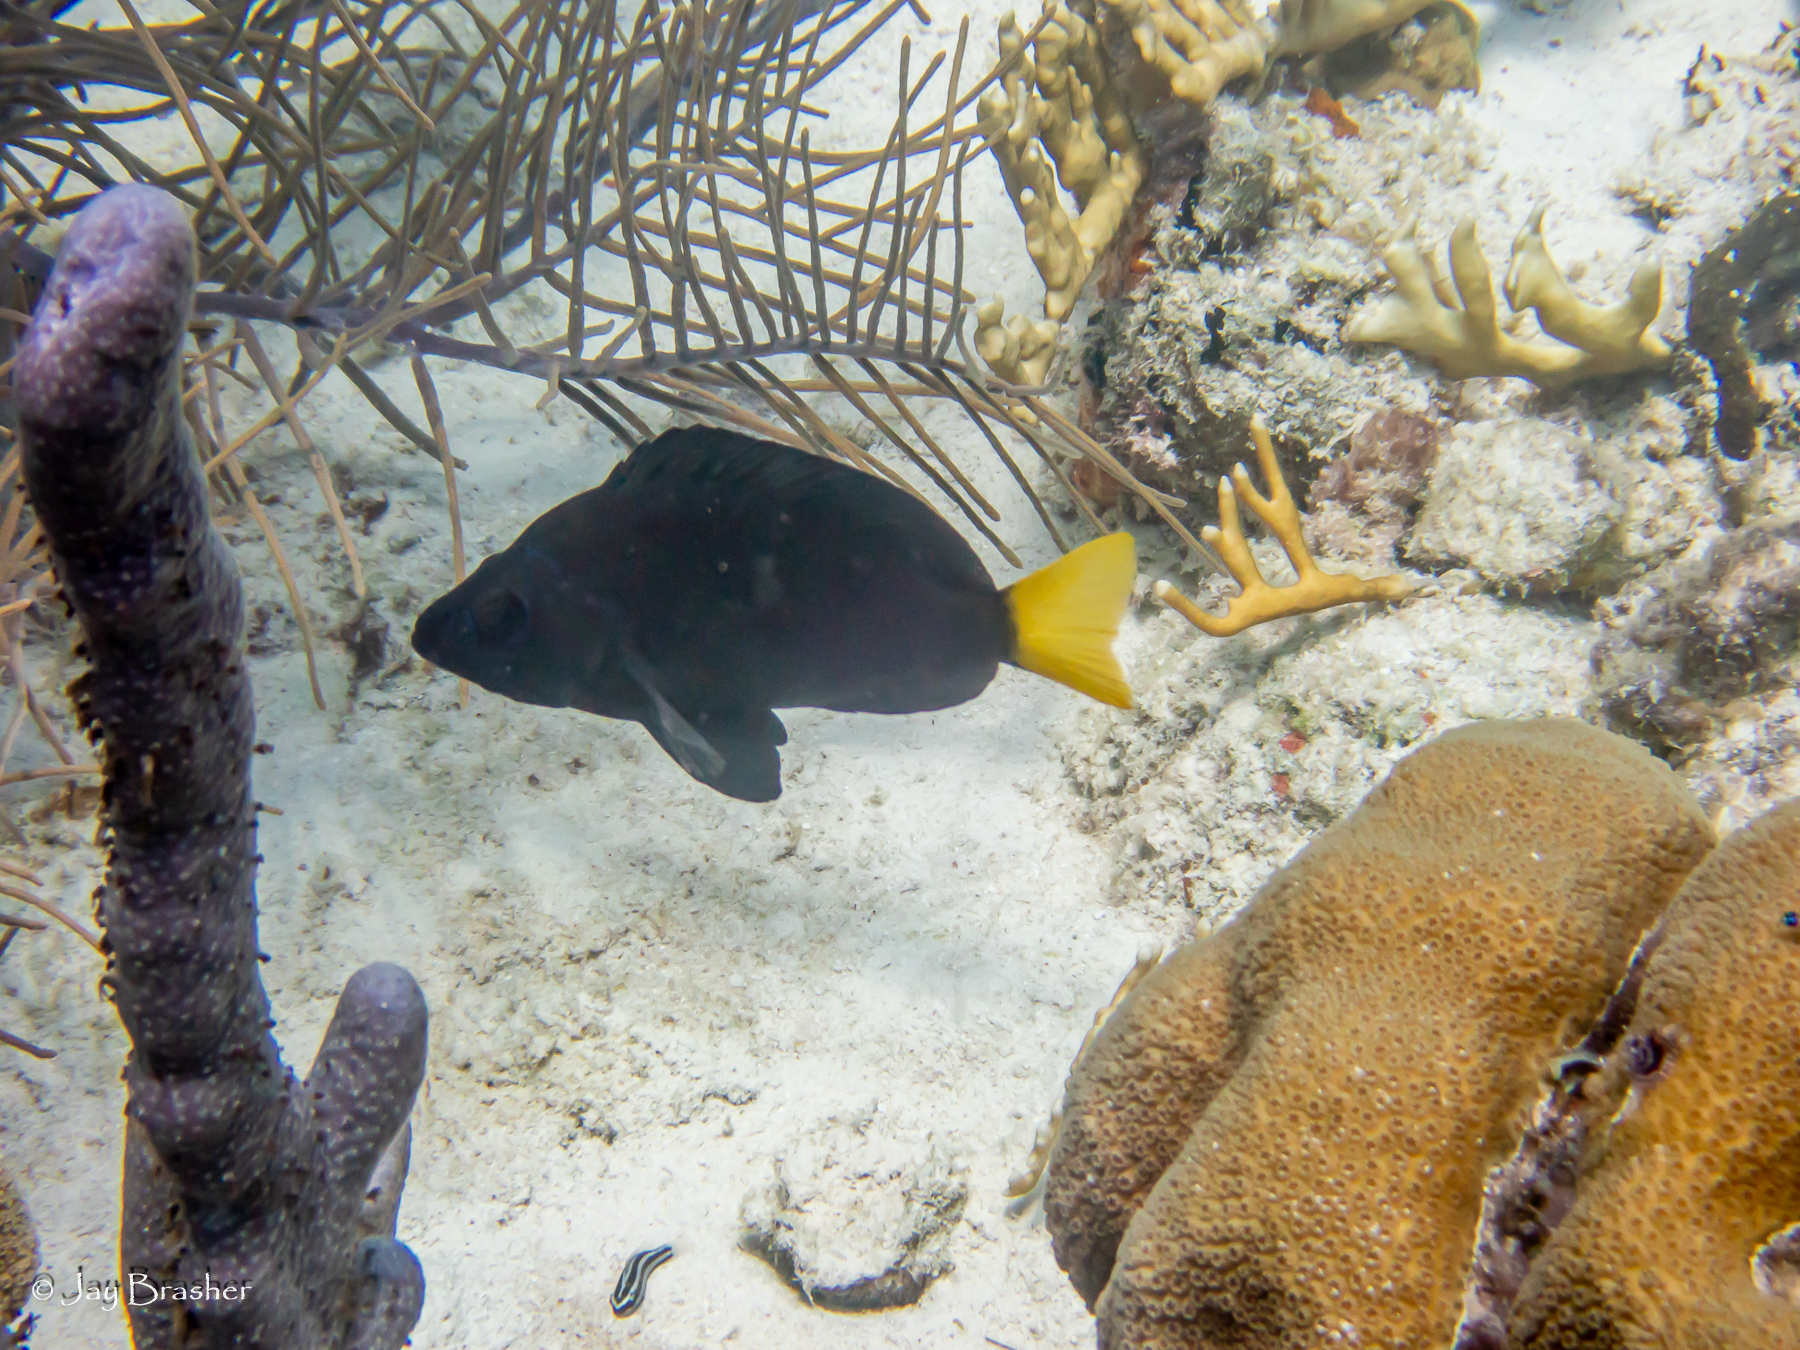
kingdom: Animalia
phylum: Chordata
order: Perciformes
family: Serranidae
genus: Hypoplectrus
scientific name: Hypoplectrus chlorurus
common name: Yellowtail hamlet
